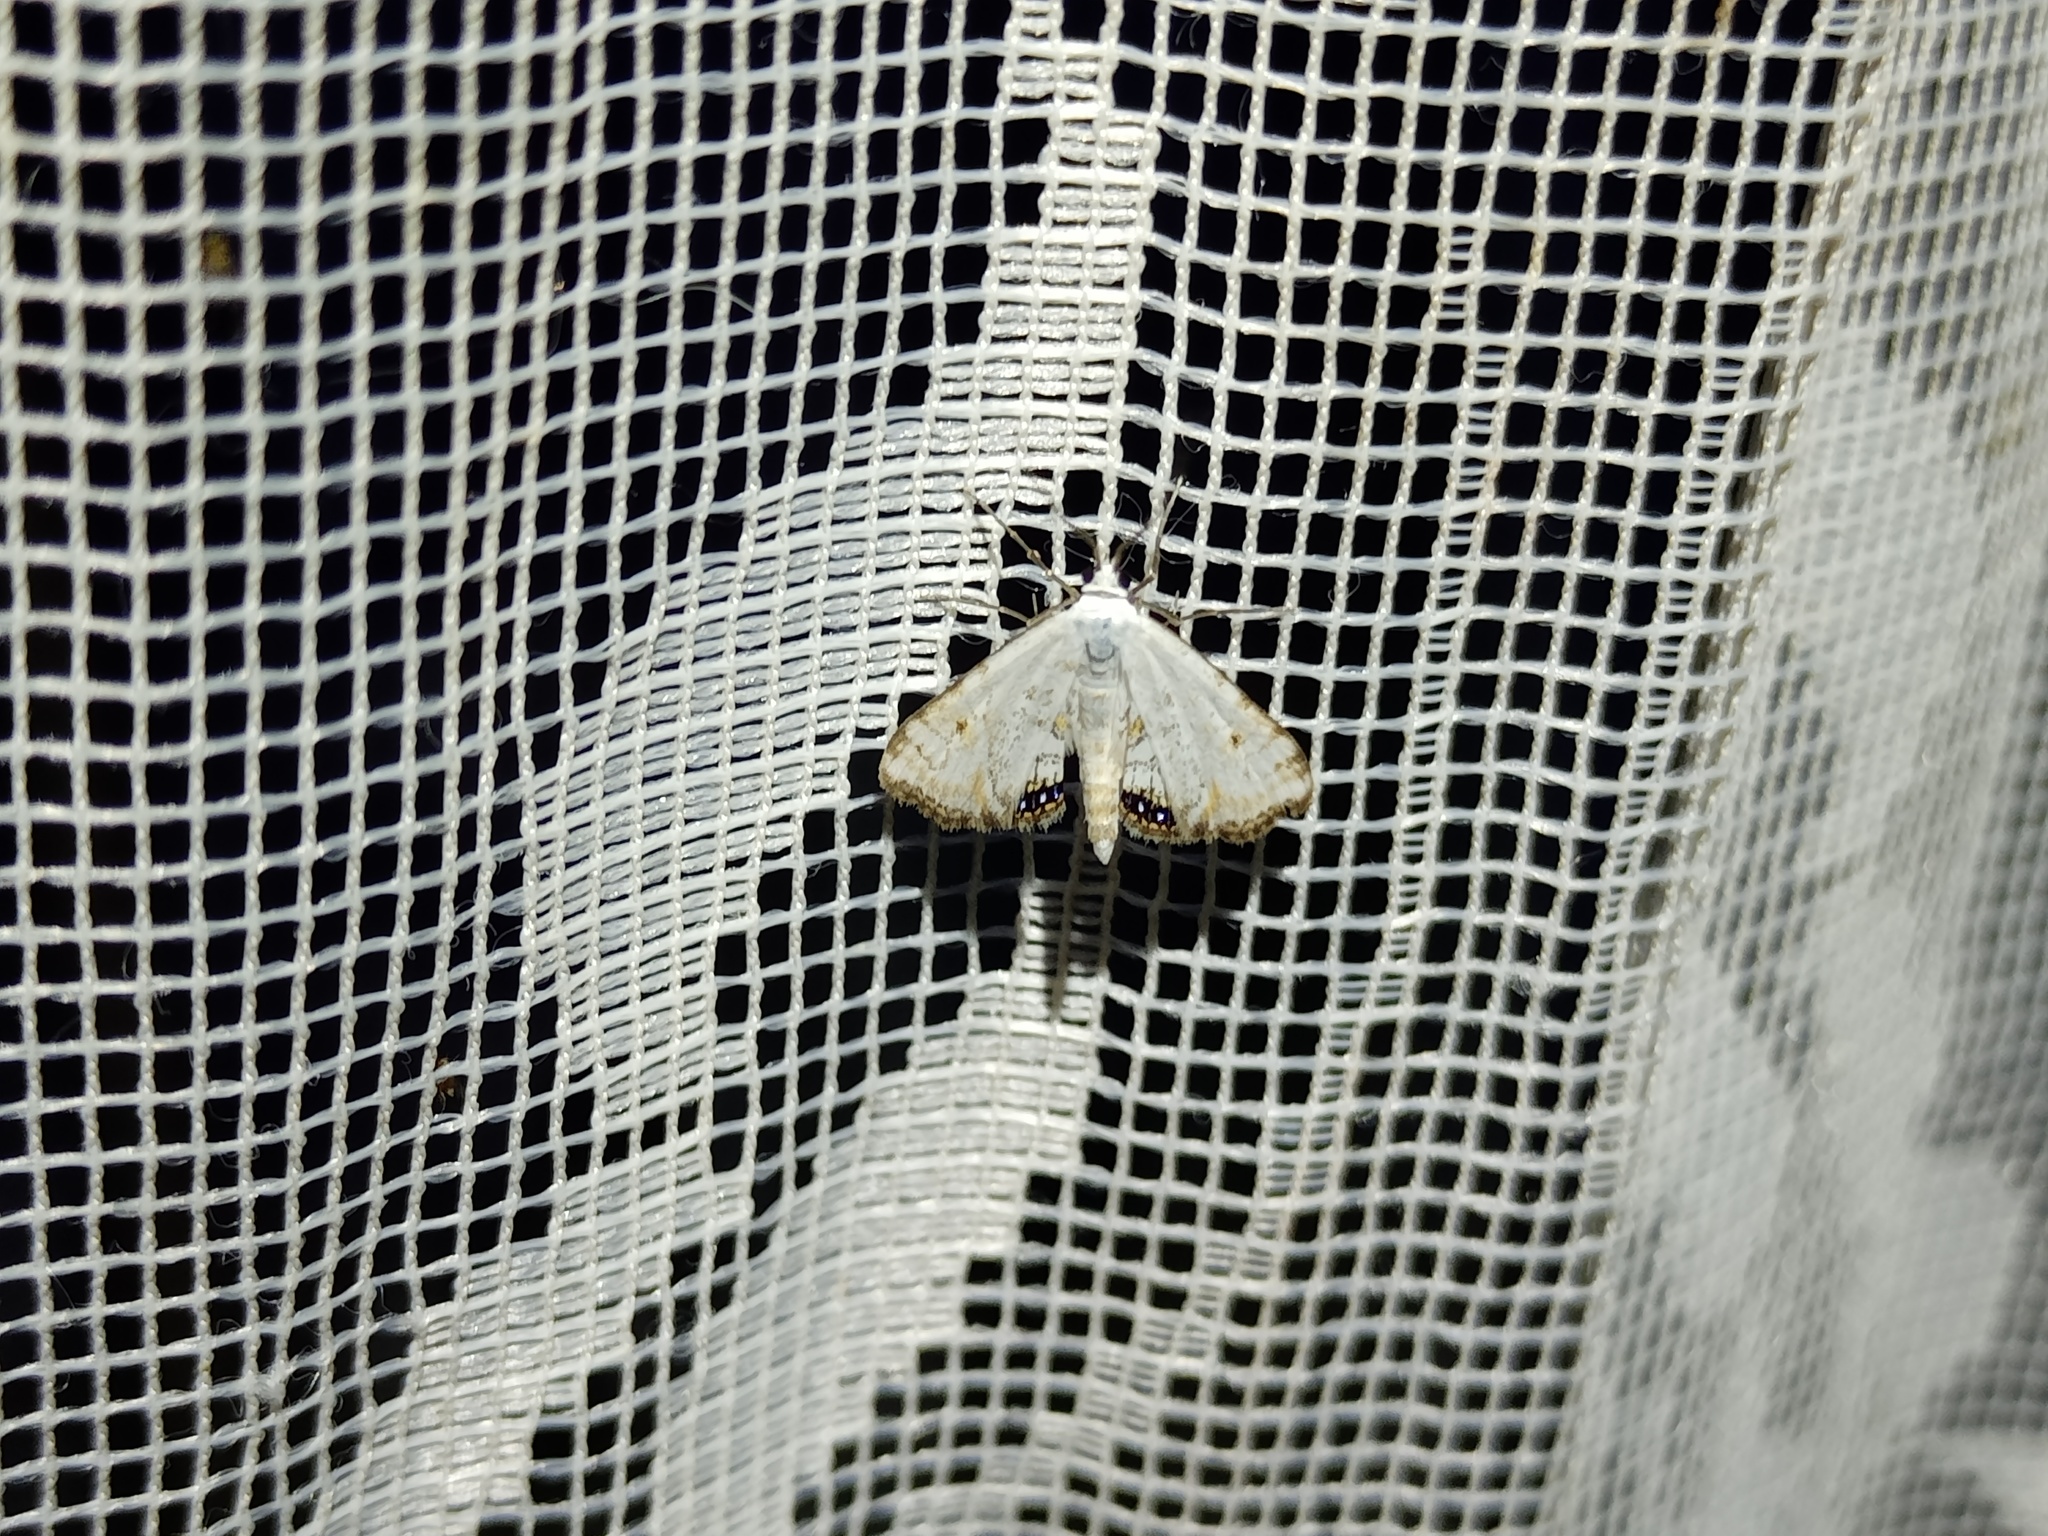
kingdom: Animalia
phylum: Arthropoda
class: Insecta
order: Lepidoptera
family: Crambidae
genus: Cataclysta
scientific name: Cataclysta lemnata
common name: Small china-mark
